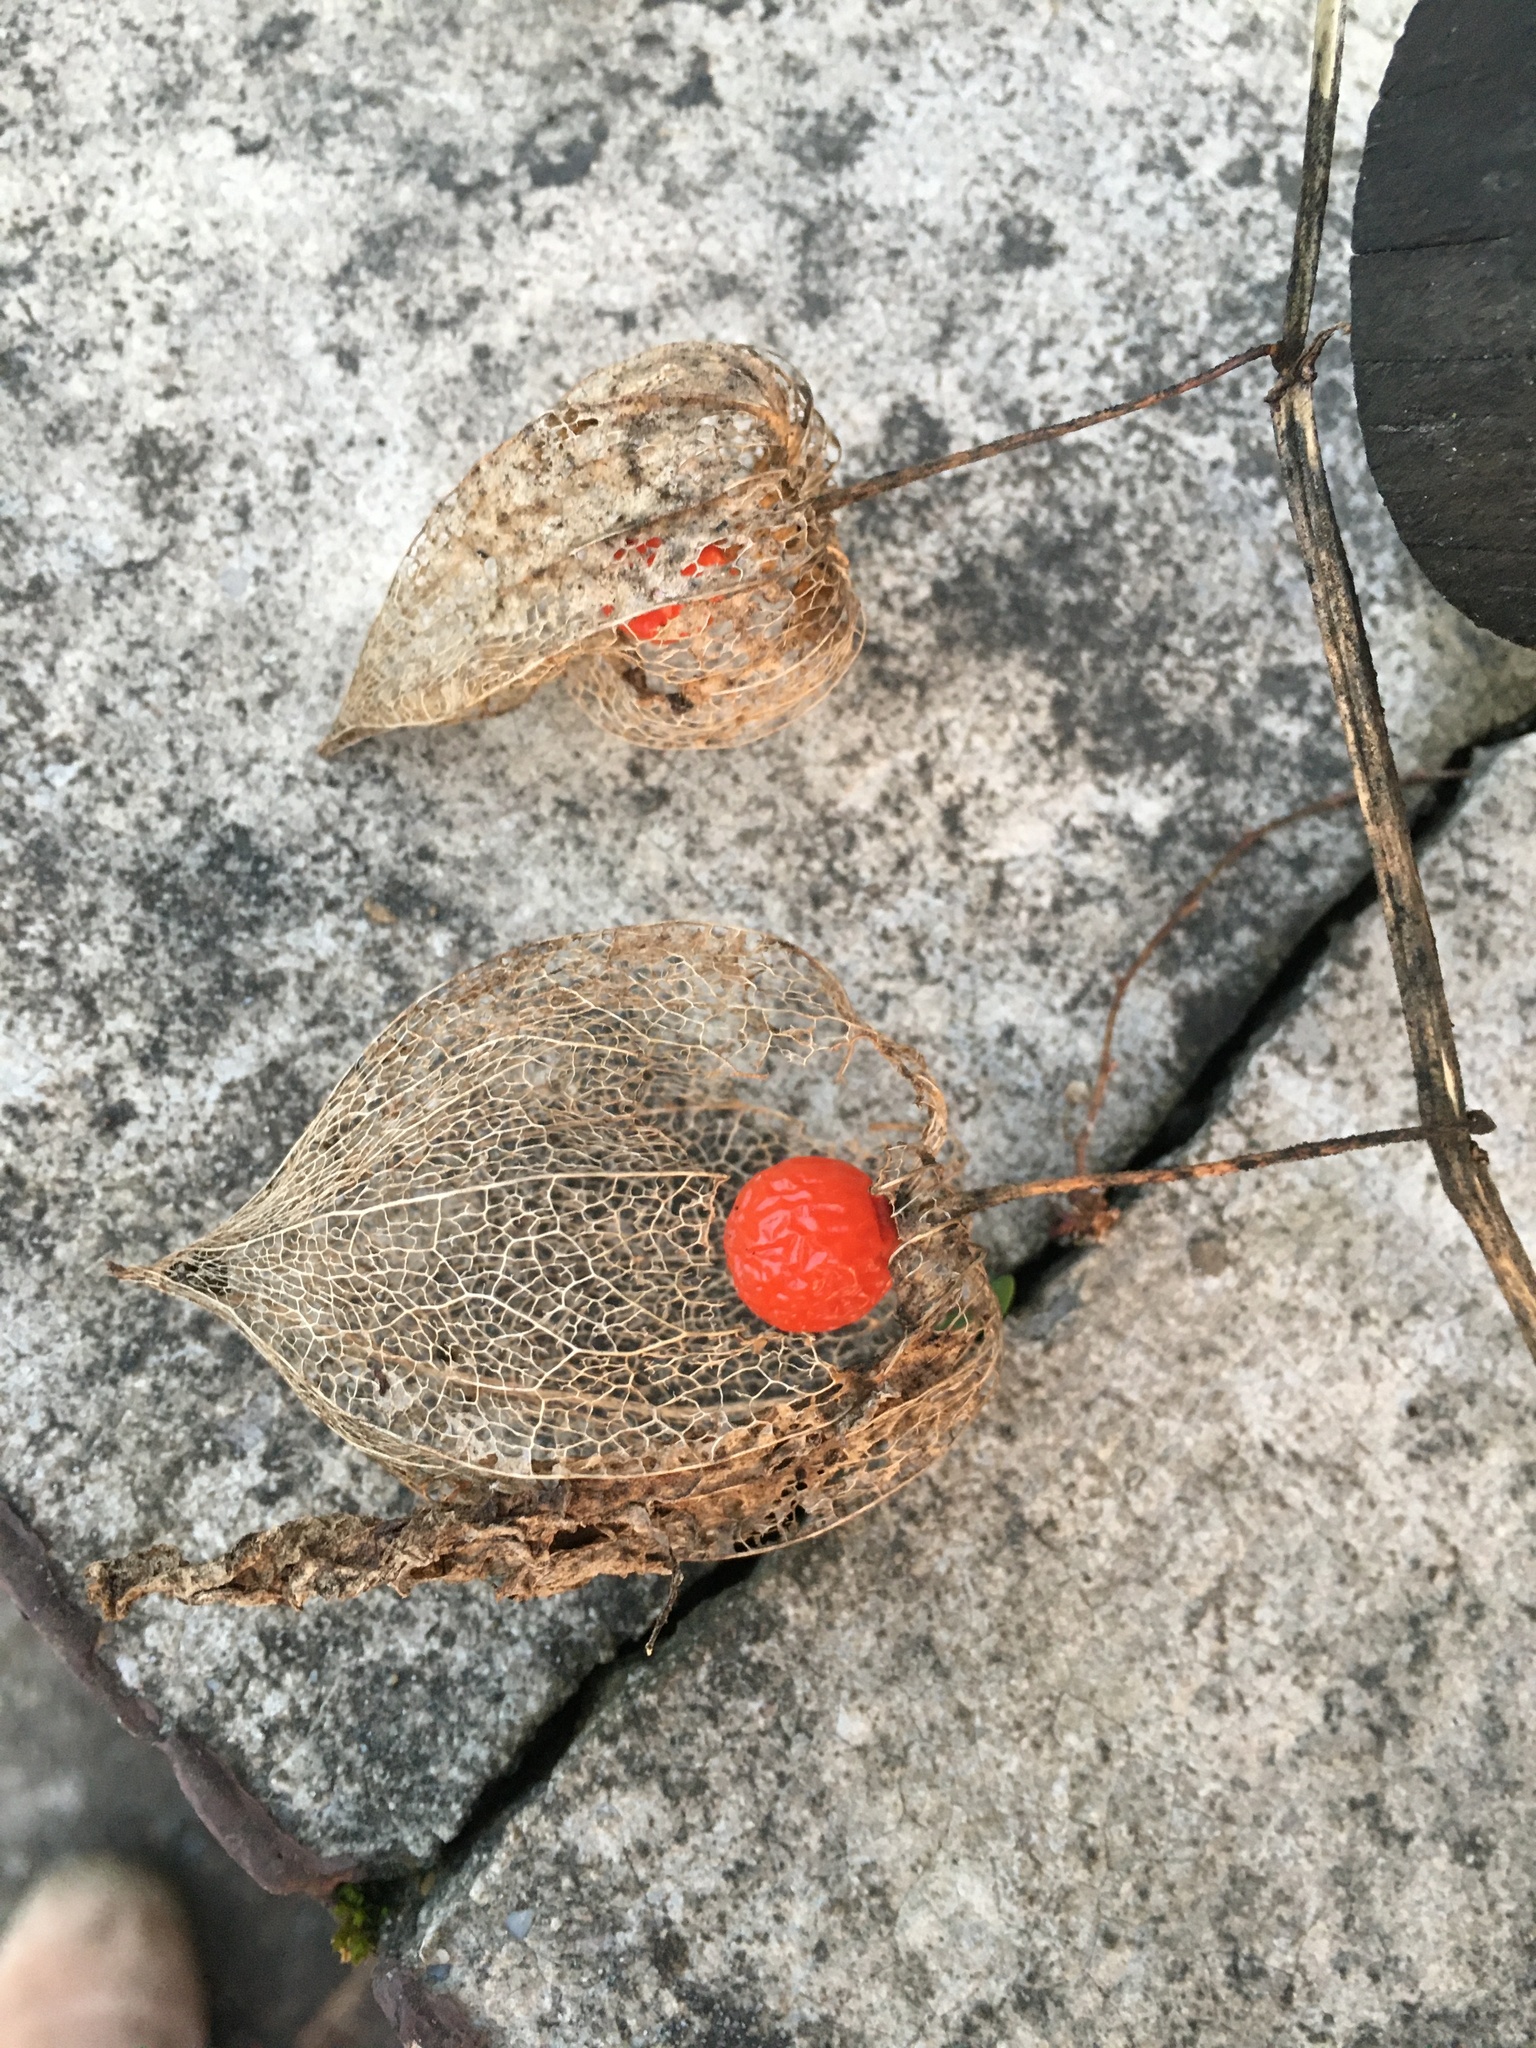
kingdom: Plantae
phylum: Tracheophyta
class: Magnoliopsida
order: Solanales
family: Solanaceae
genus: Alkekengi
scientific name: Alkekengi officinarum
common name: Japanese-lantern
